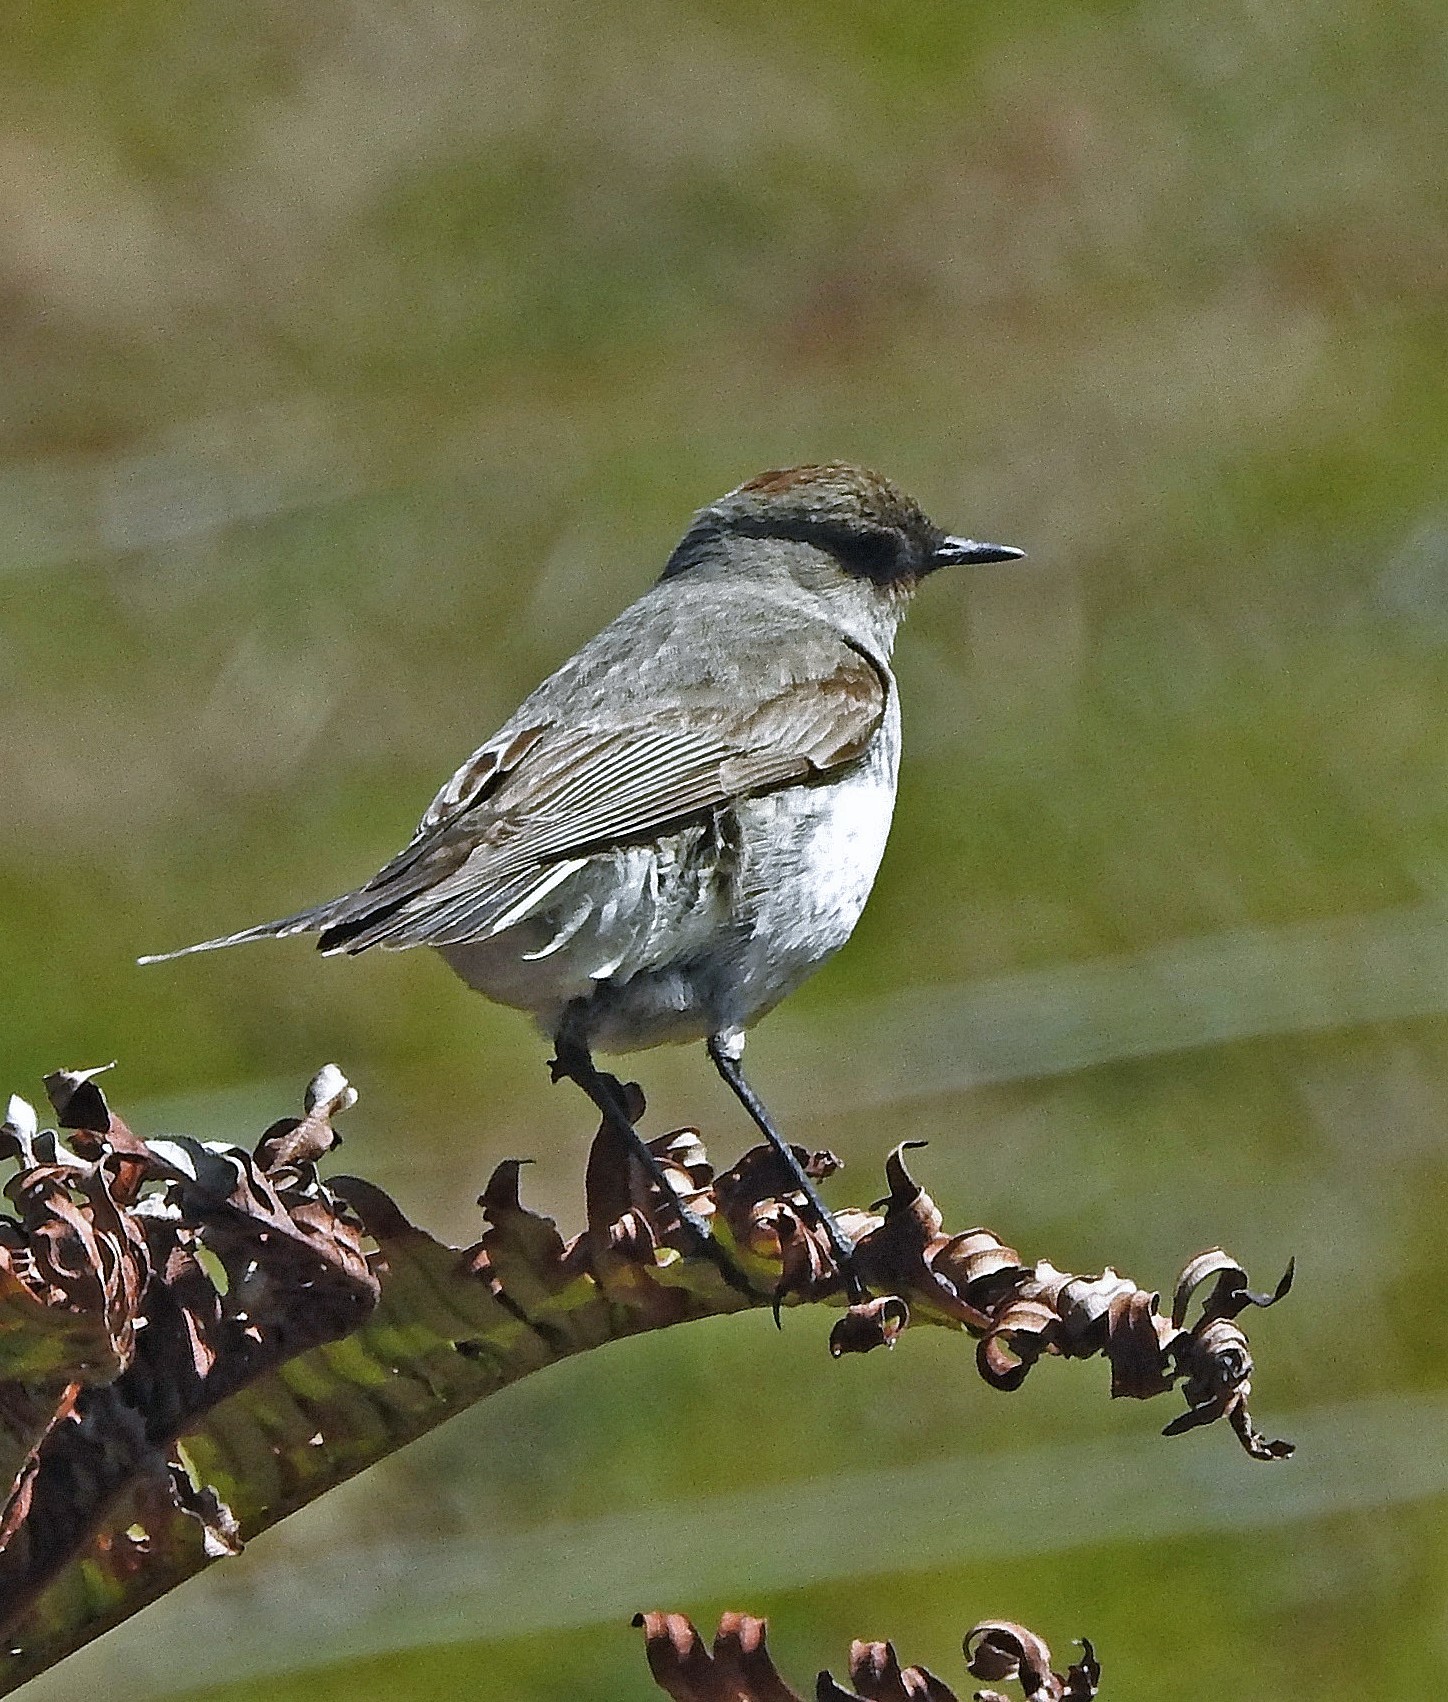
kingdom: Animalia
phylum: Chordata
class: Aves
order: Passeriformes
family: Tyrannidae
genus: Muscisaxicola
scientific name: Muscisaxicola maclovianus
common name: Dark-faced ground tyrant
